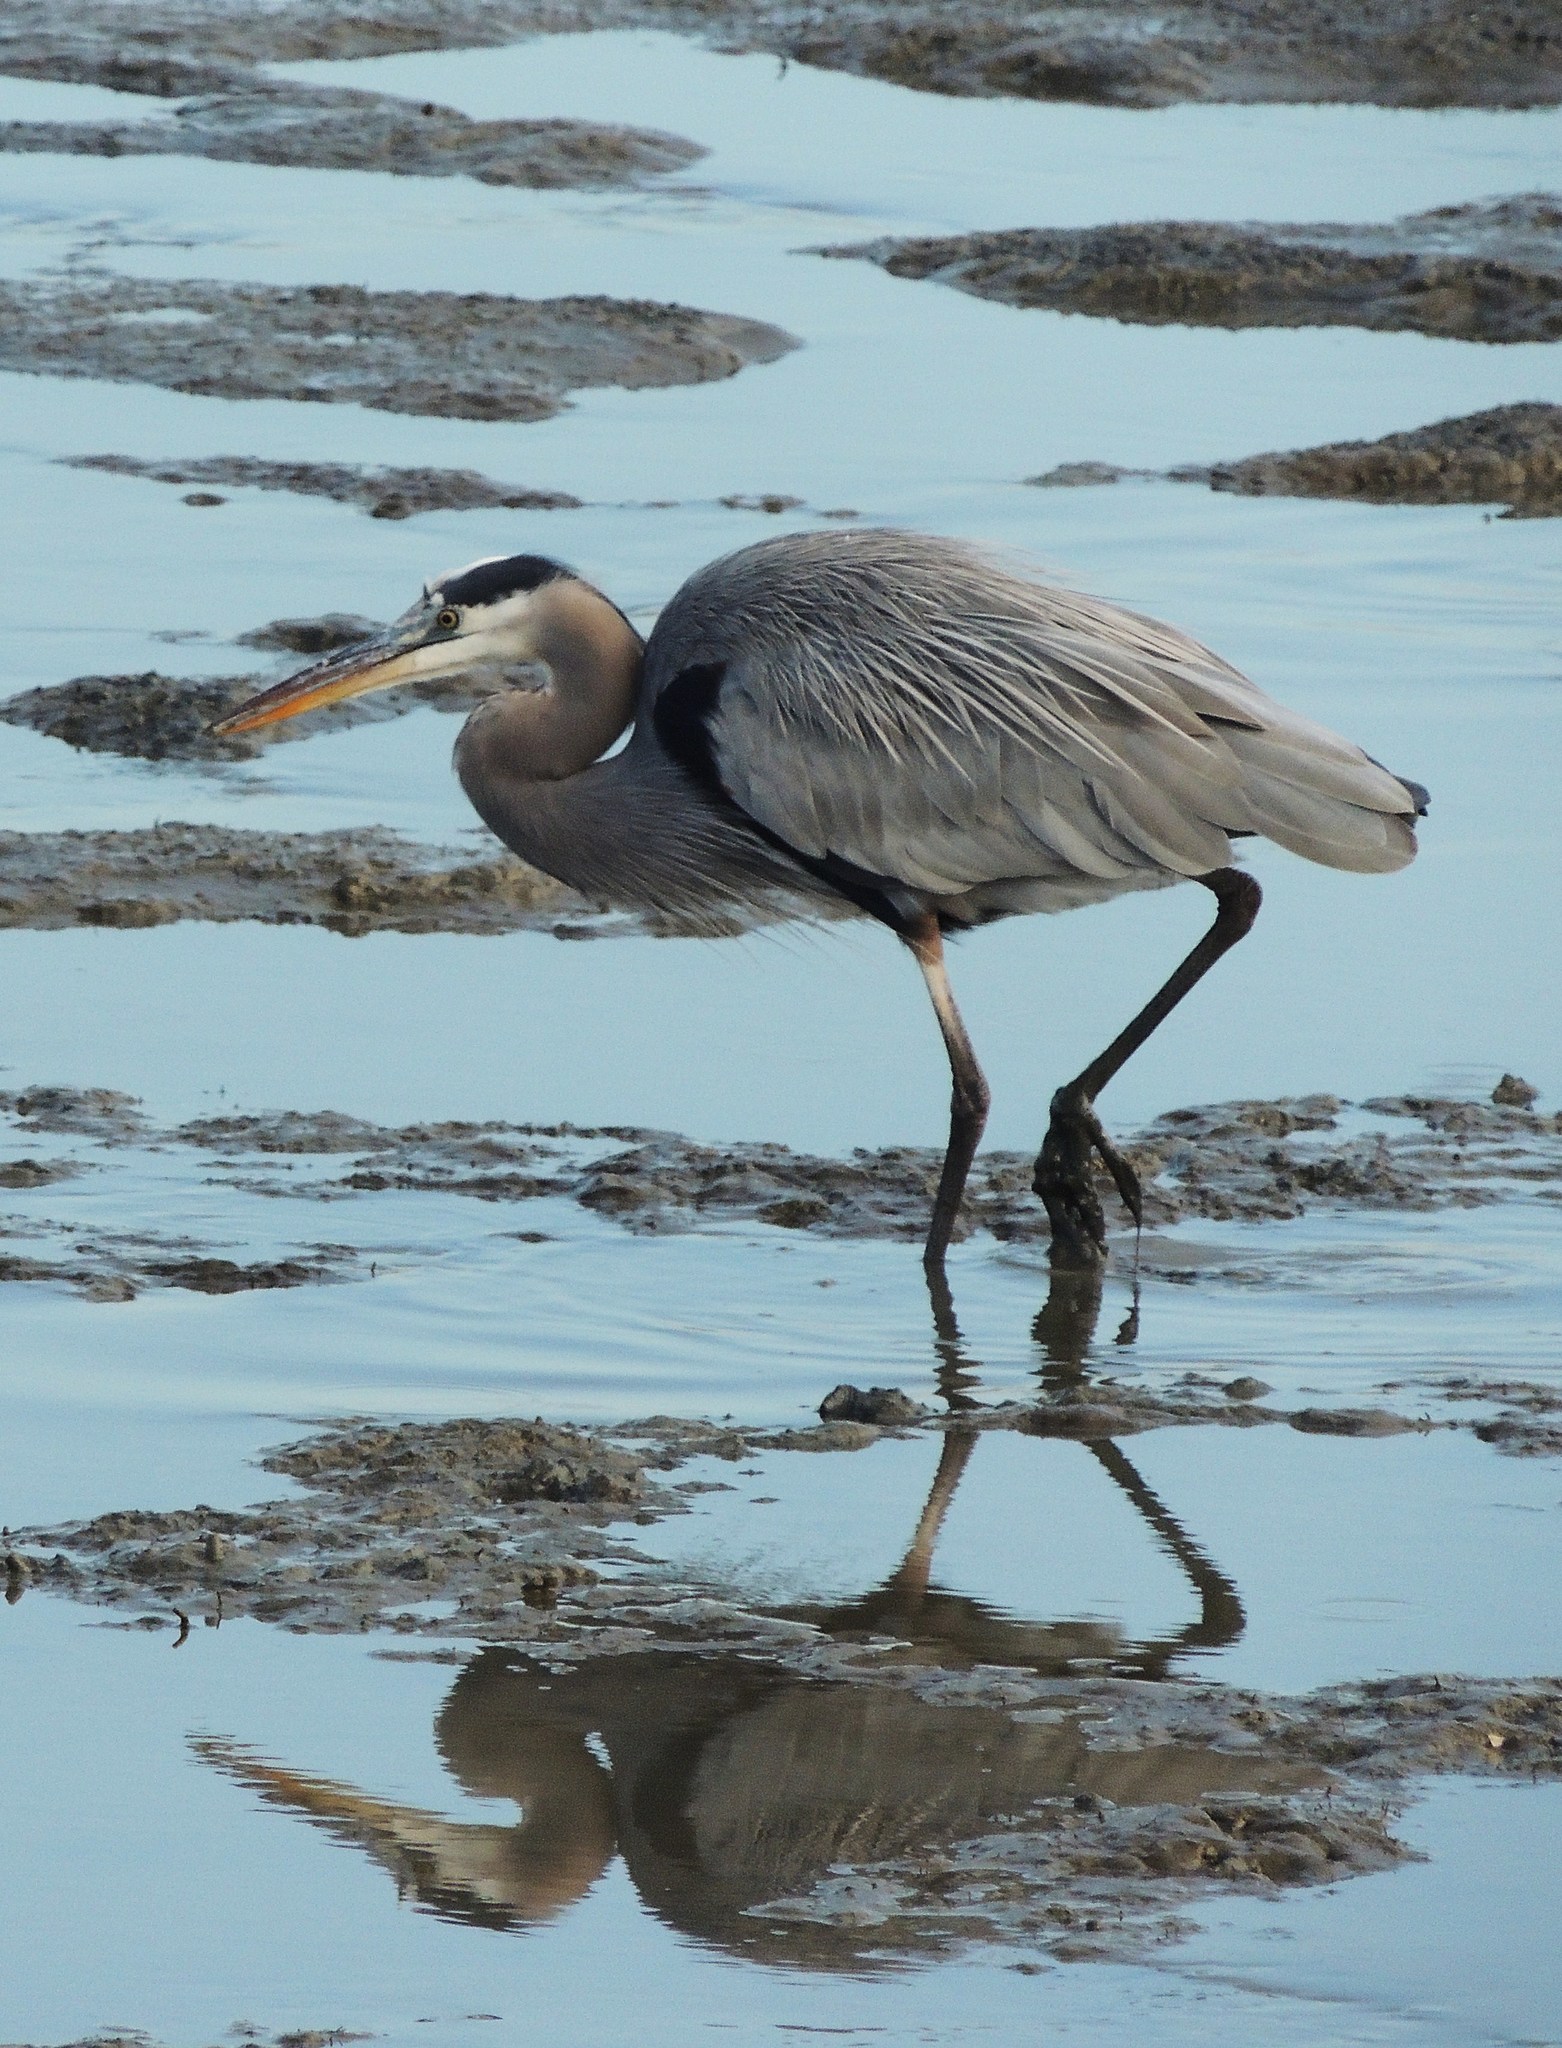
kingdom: Animalia
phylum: Chordata
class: Aves
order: Pelecaniformes
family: Ardeidae
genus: Ardea
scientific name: Ardea herodias
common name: Great blue heron
